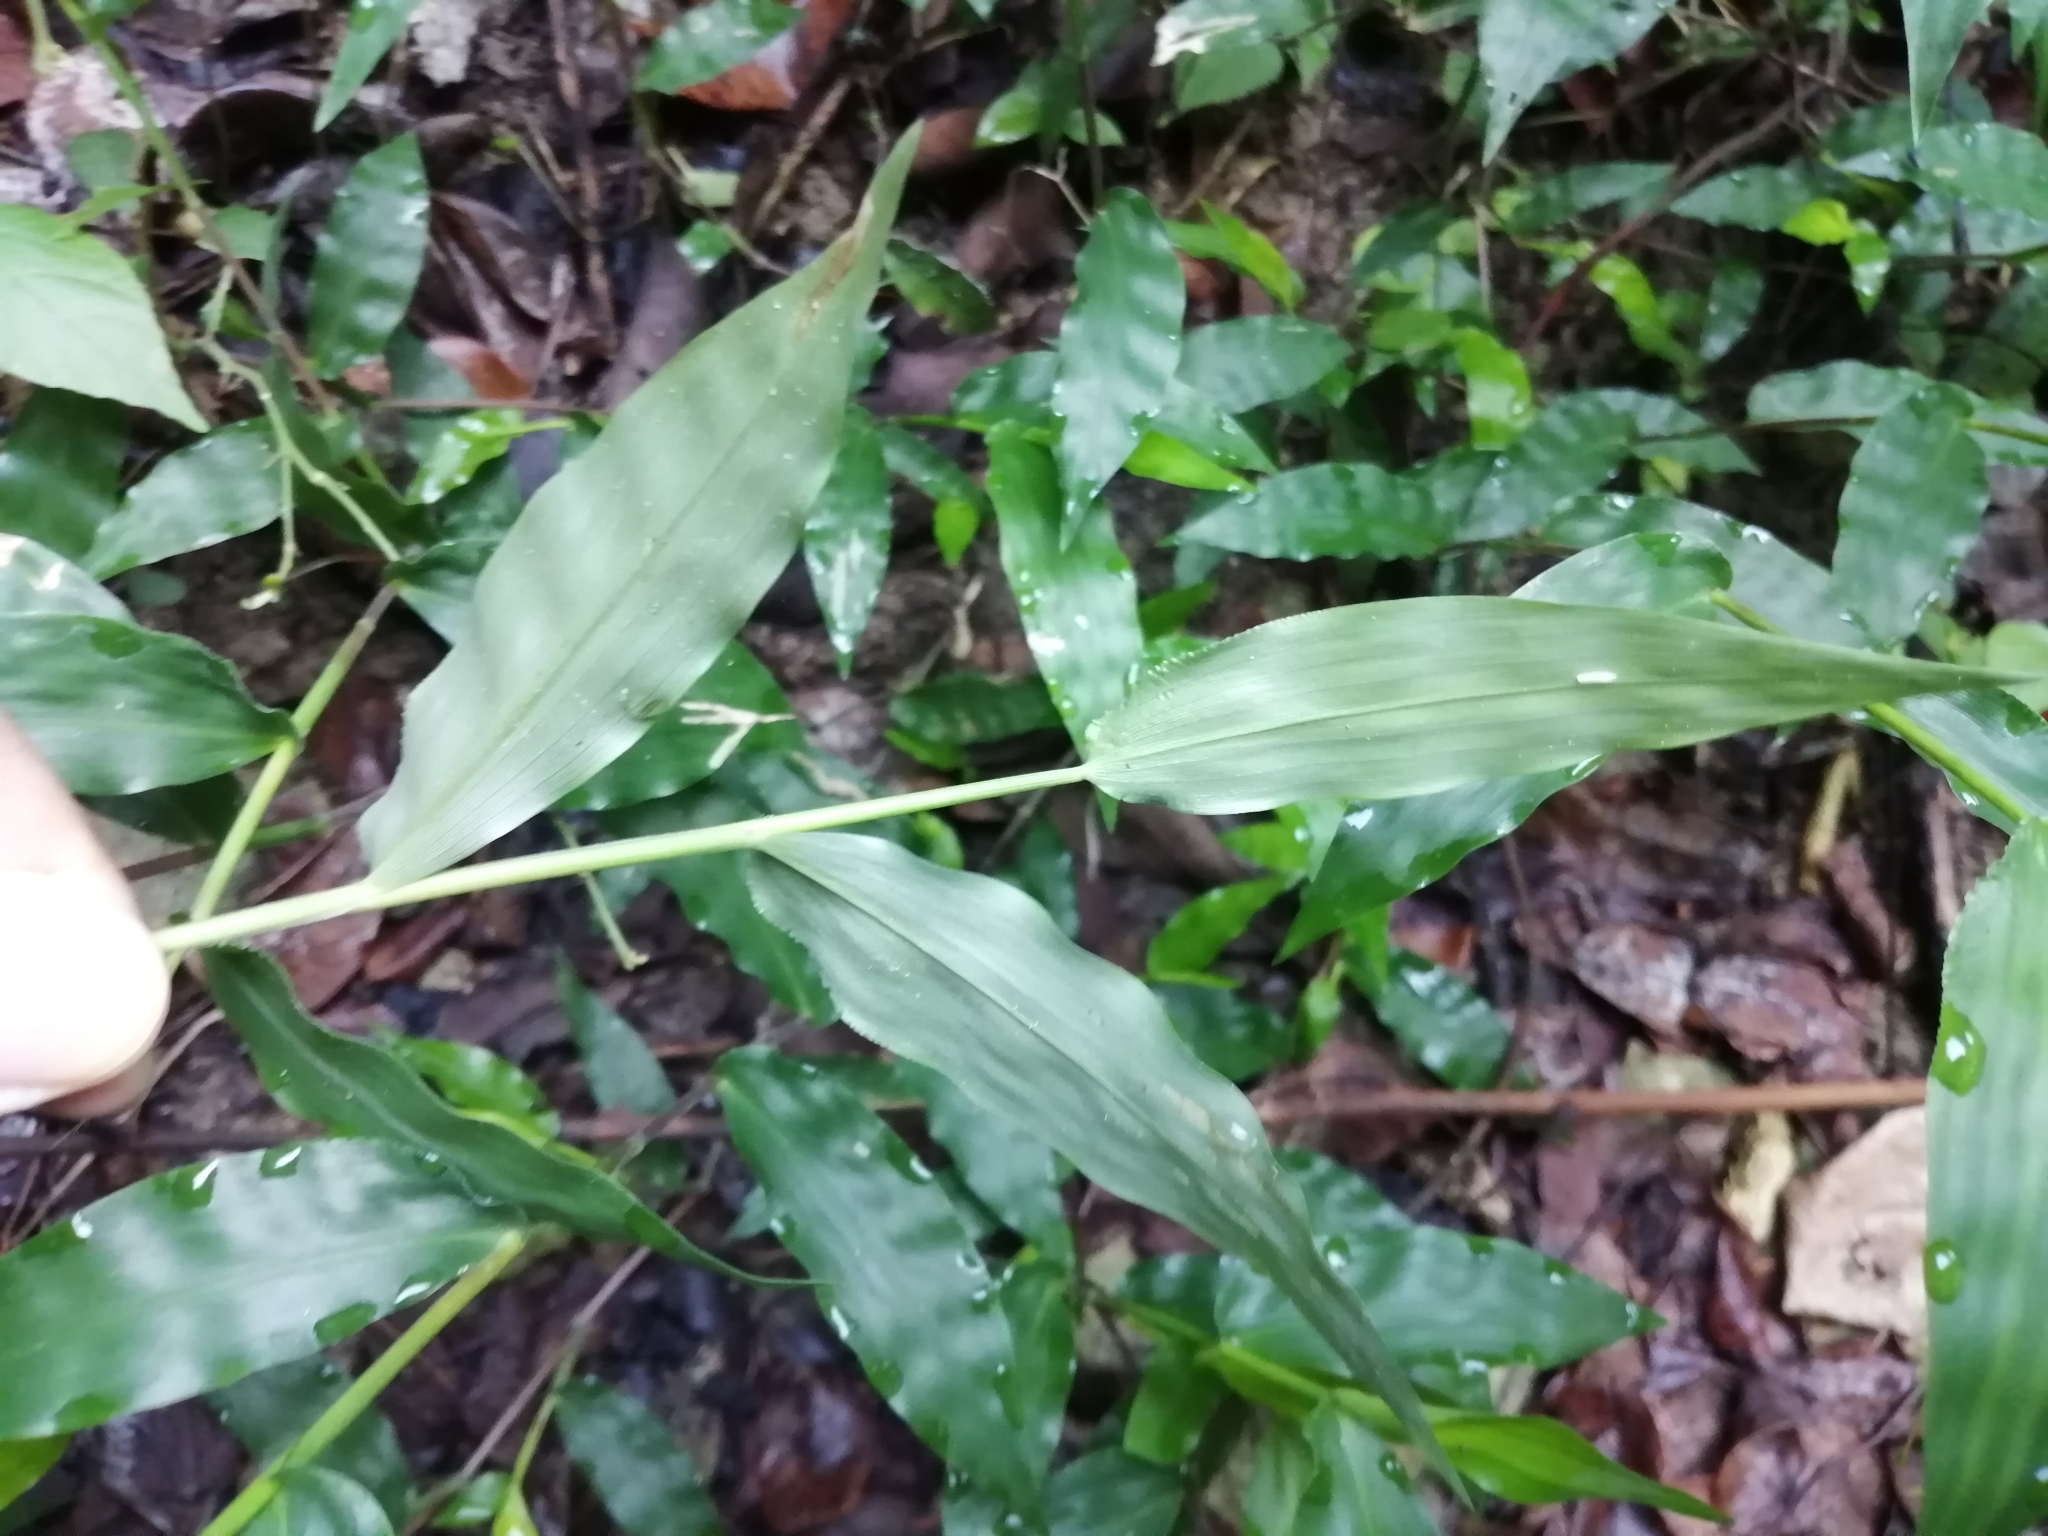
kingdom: Plantae
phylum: Tracheophyta
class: Liliopsida
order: Poales
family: Poaceae
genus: Oplismenus
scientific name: Oplismenus compositus
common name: Running mountain grass
